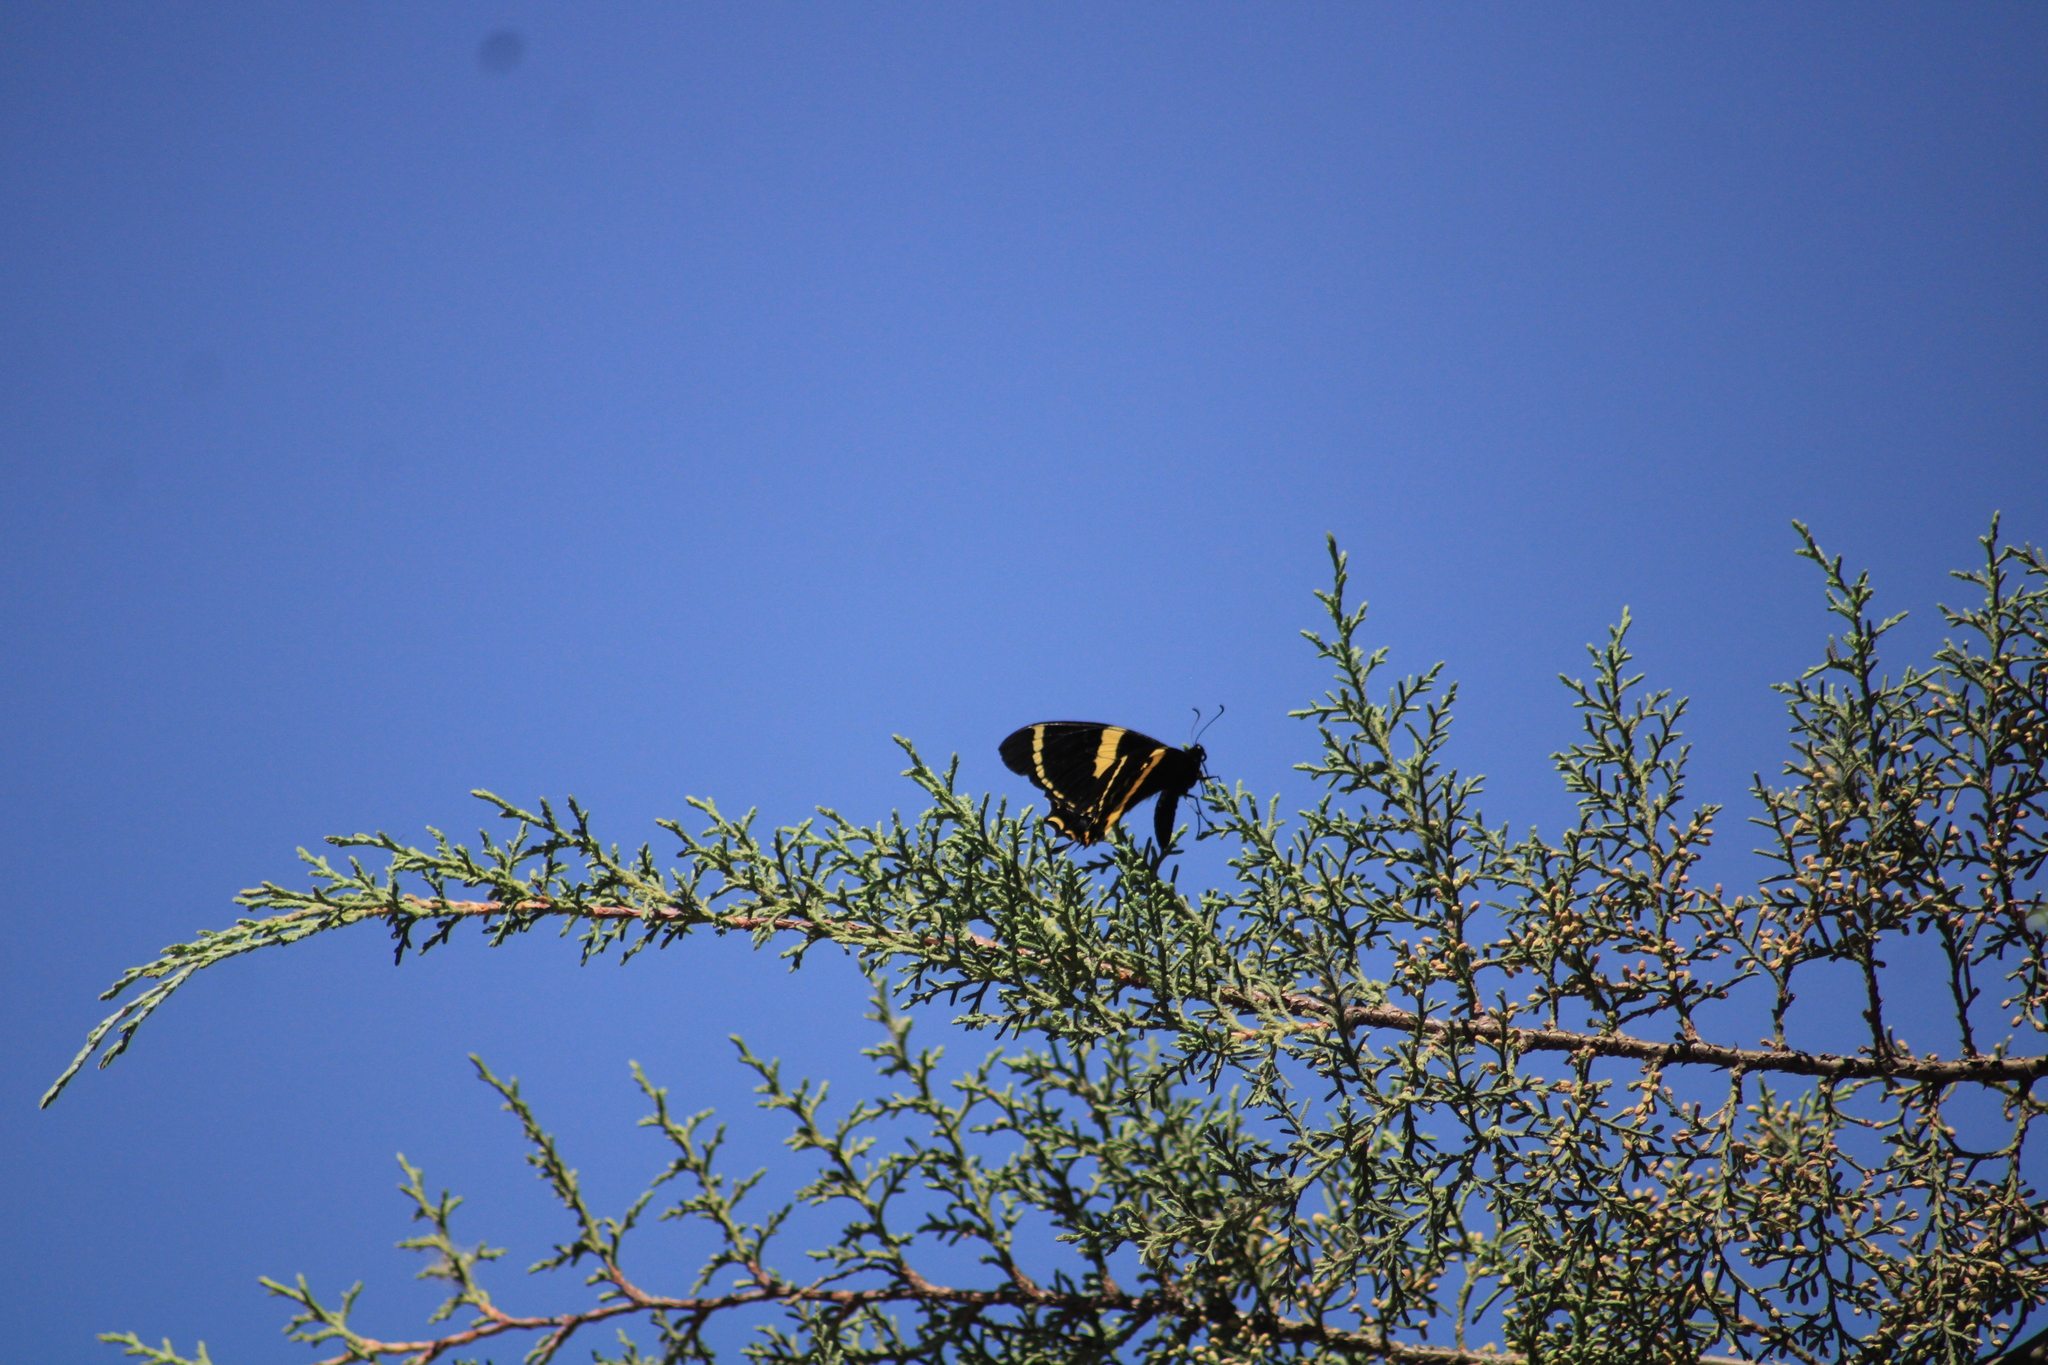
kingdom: Animalia
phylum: Arthropoda
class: Insecta
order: Lepidoptera
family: Papilionidae
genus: Papilio
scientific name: Papilio garamas
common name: Magnificent swallowtail
